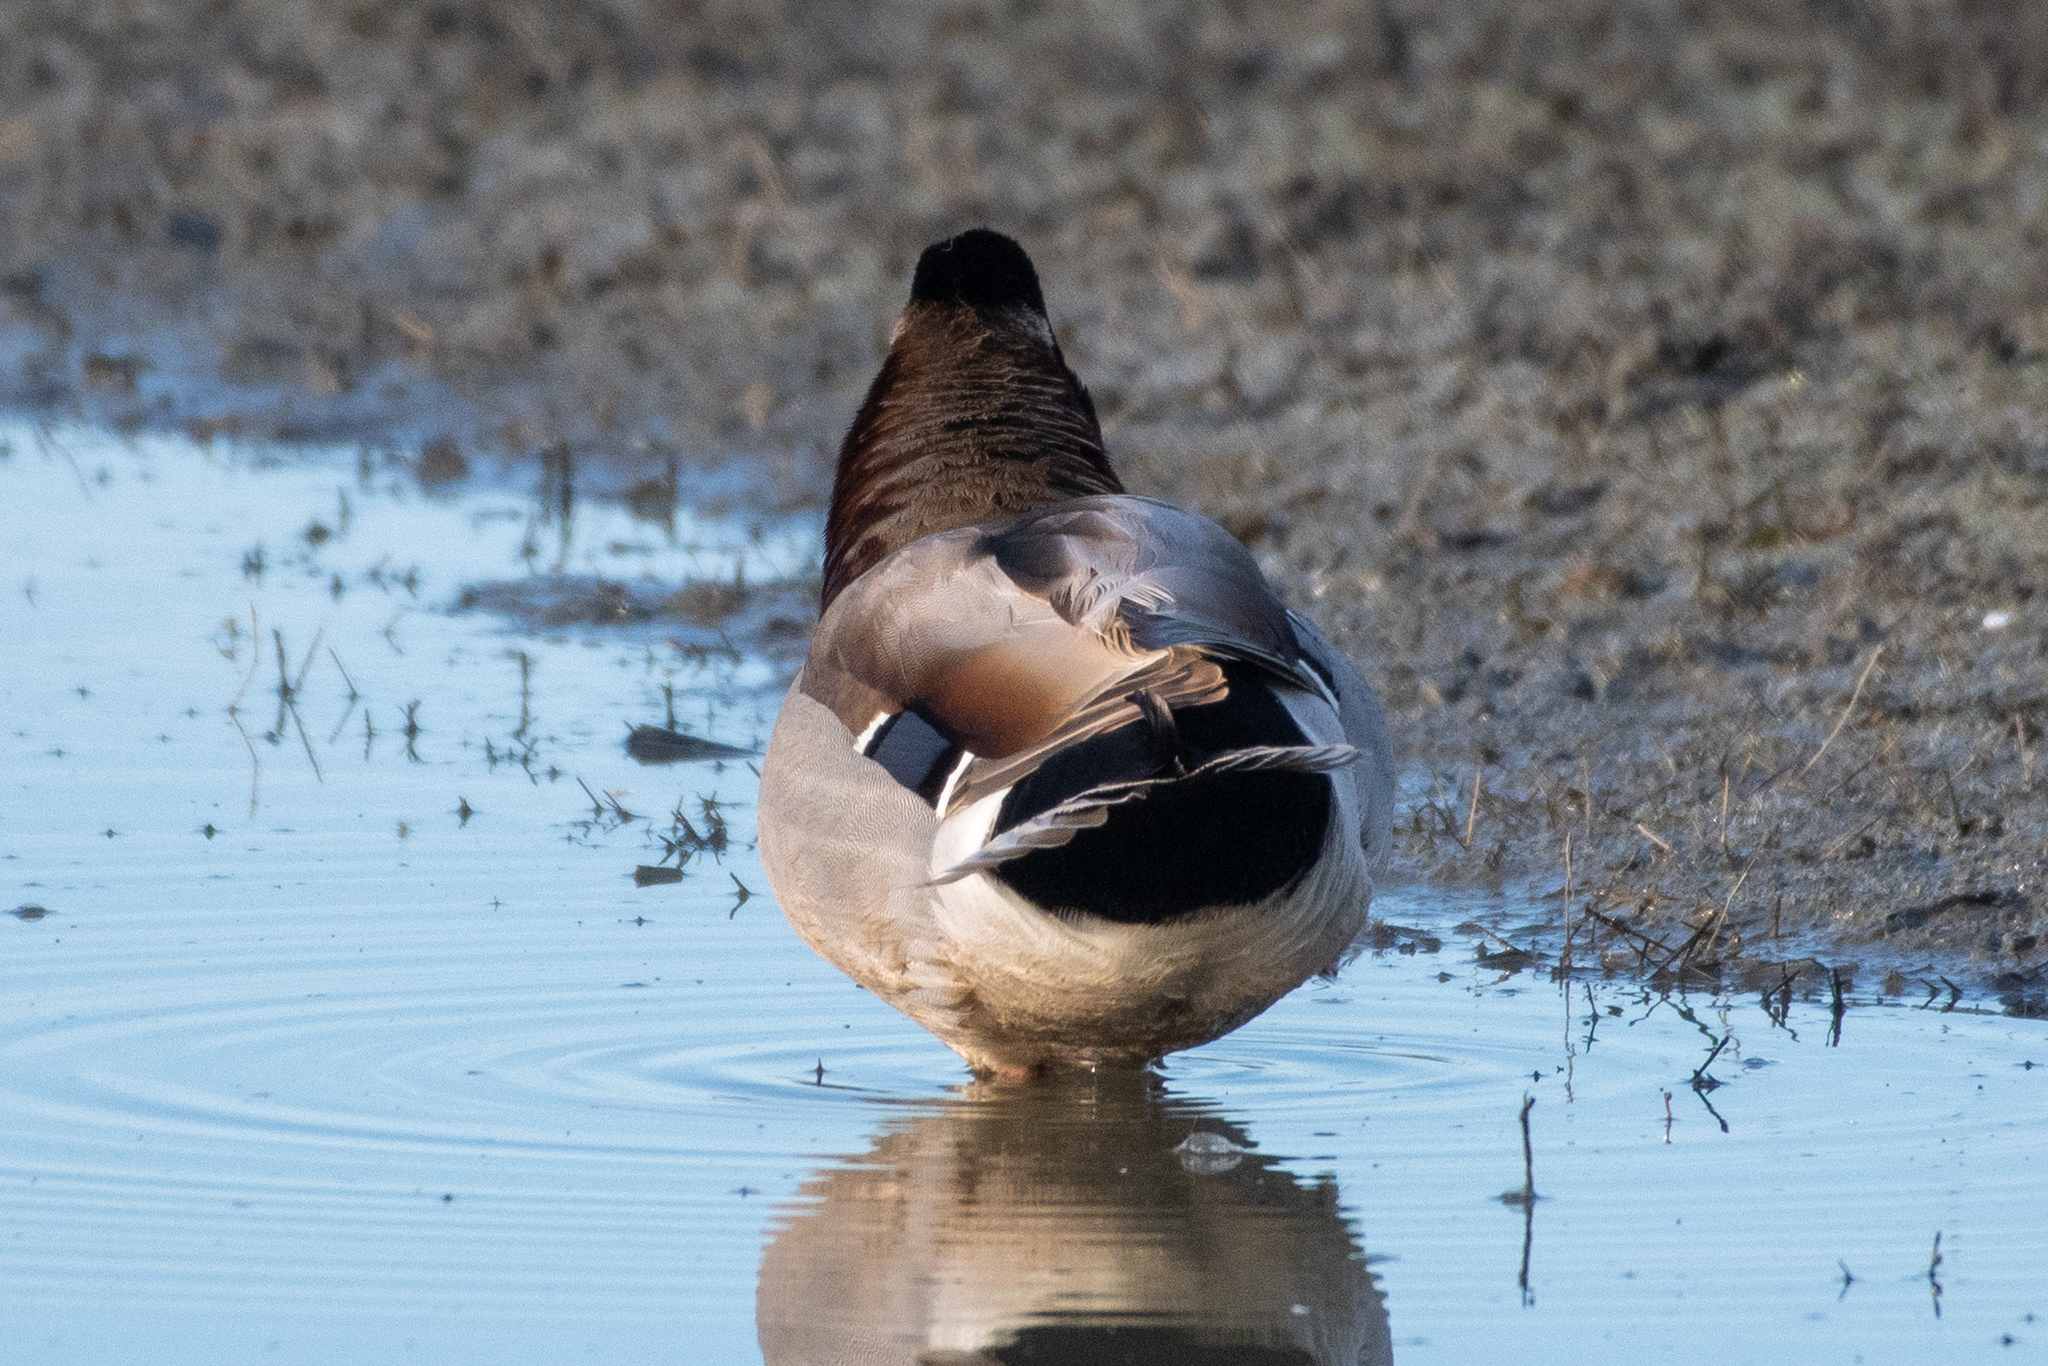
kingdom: Animalia
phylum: Chordata
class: Aves
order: Anseriformes
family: Anatidae
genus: Anas
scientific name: Anas platyrhynchos
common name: Mallard
